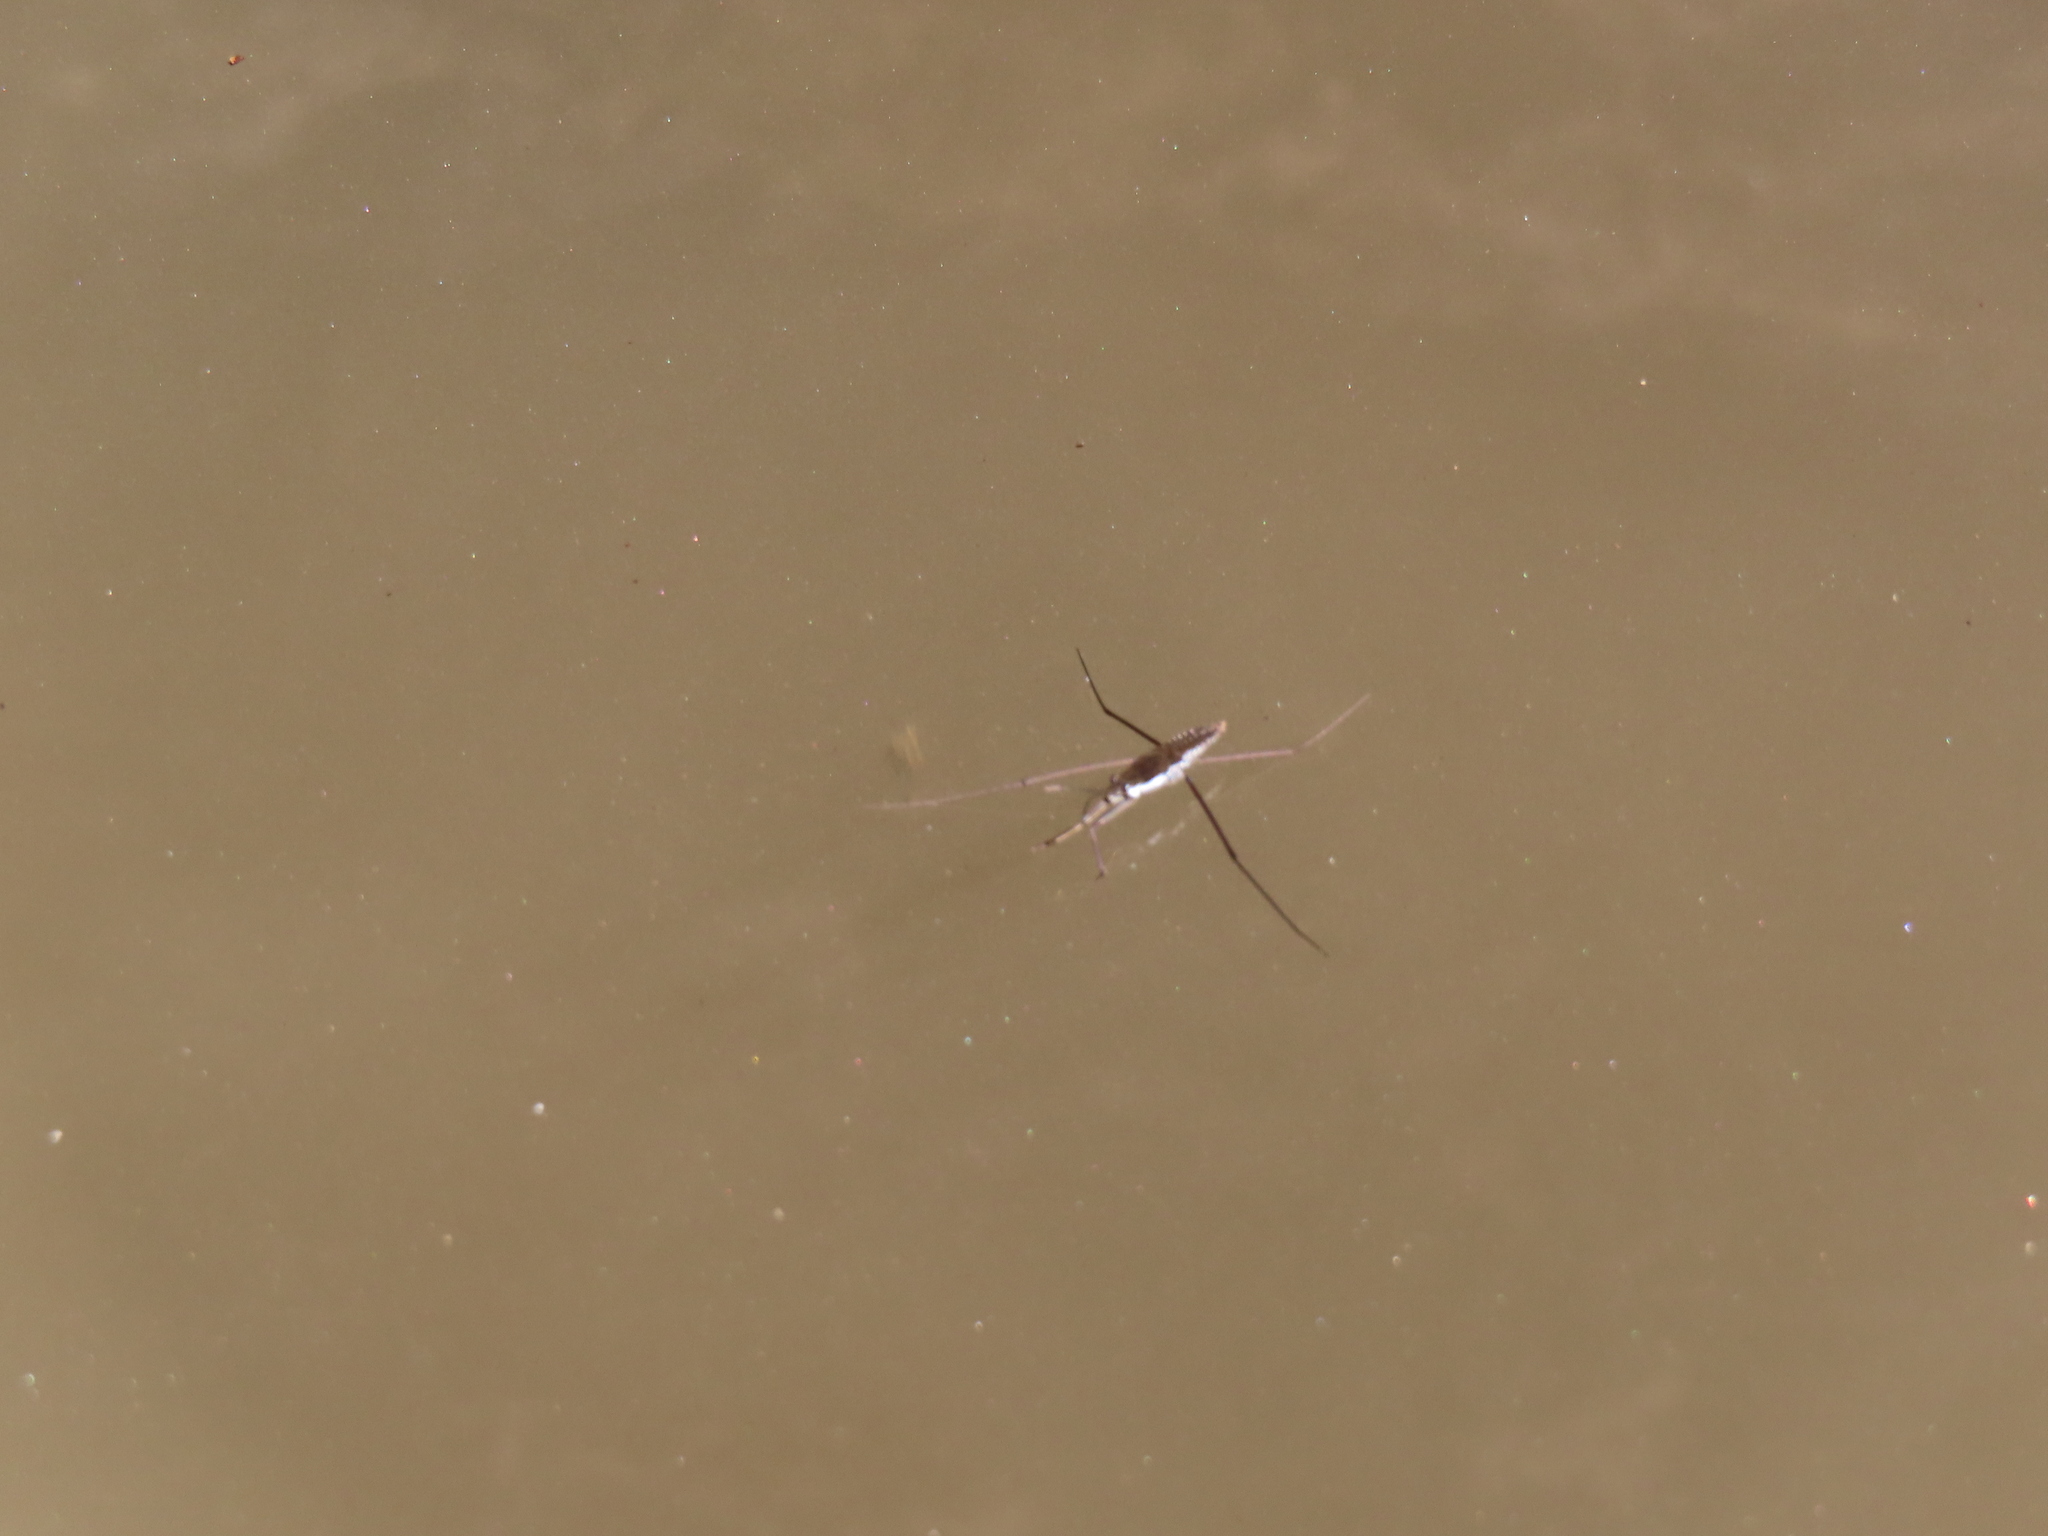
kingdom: Animalia
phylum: Arthropoda
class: Insecta
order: Hemiptera
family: Gerridae
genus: Aquarius
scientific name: Aquarius remigis
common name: Common water strider
